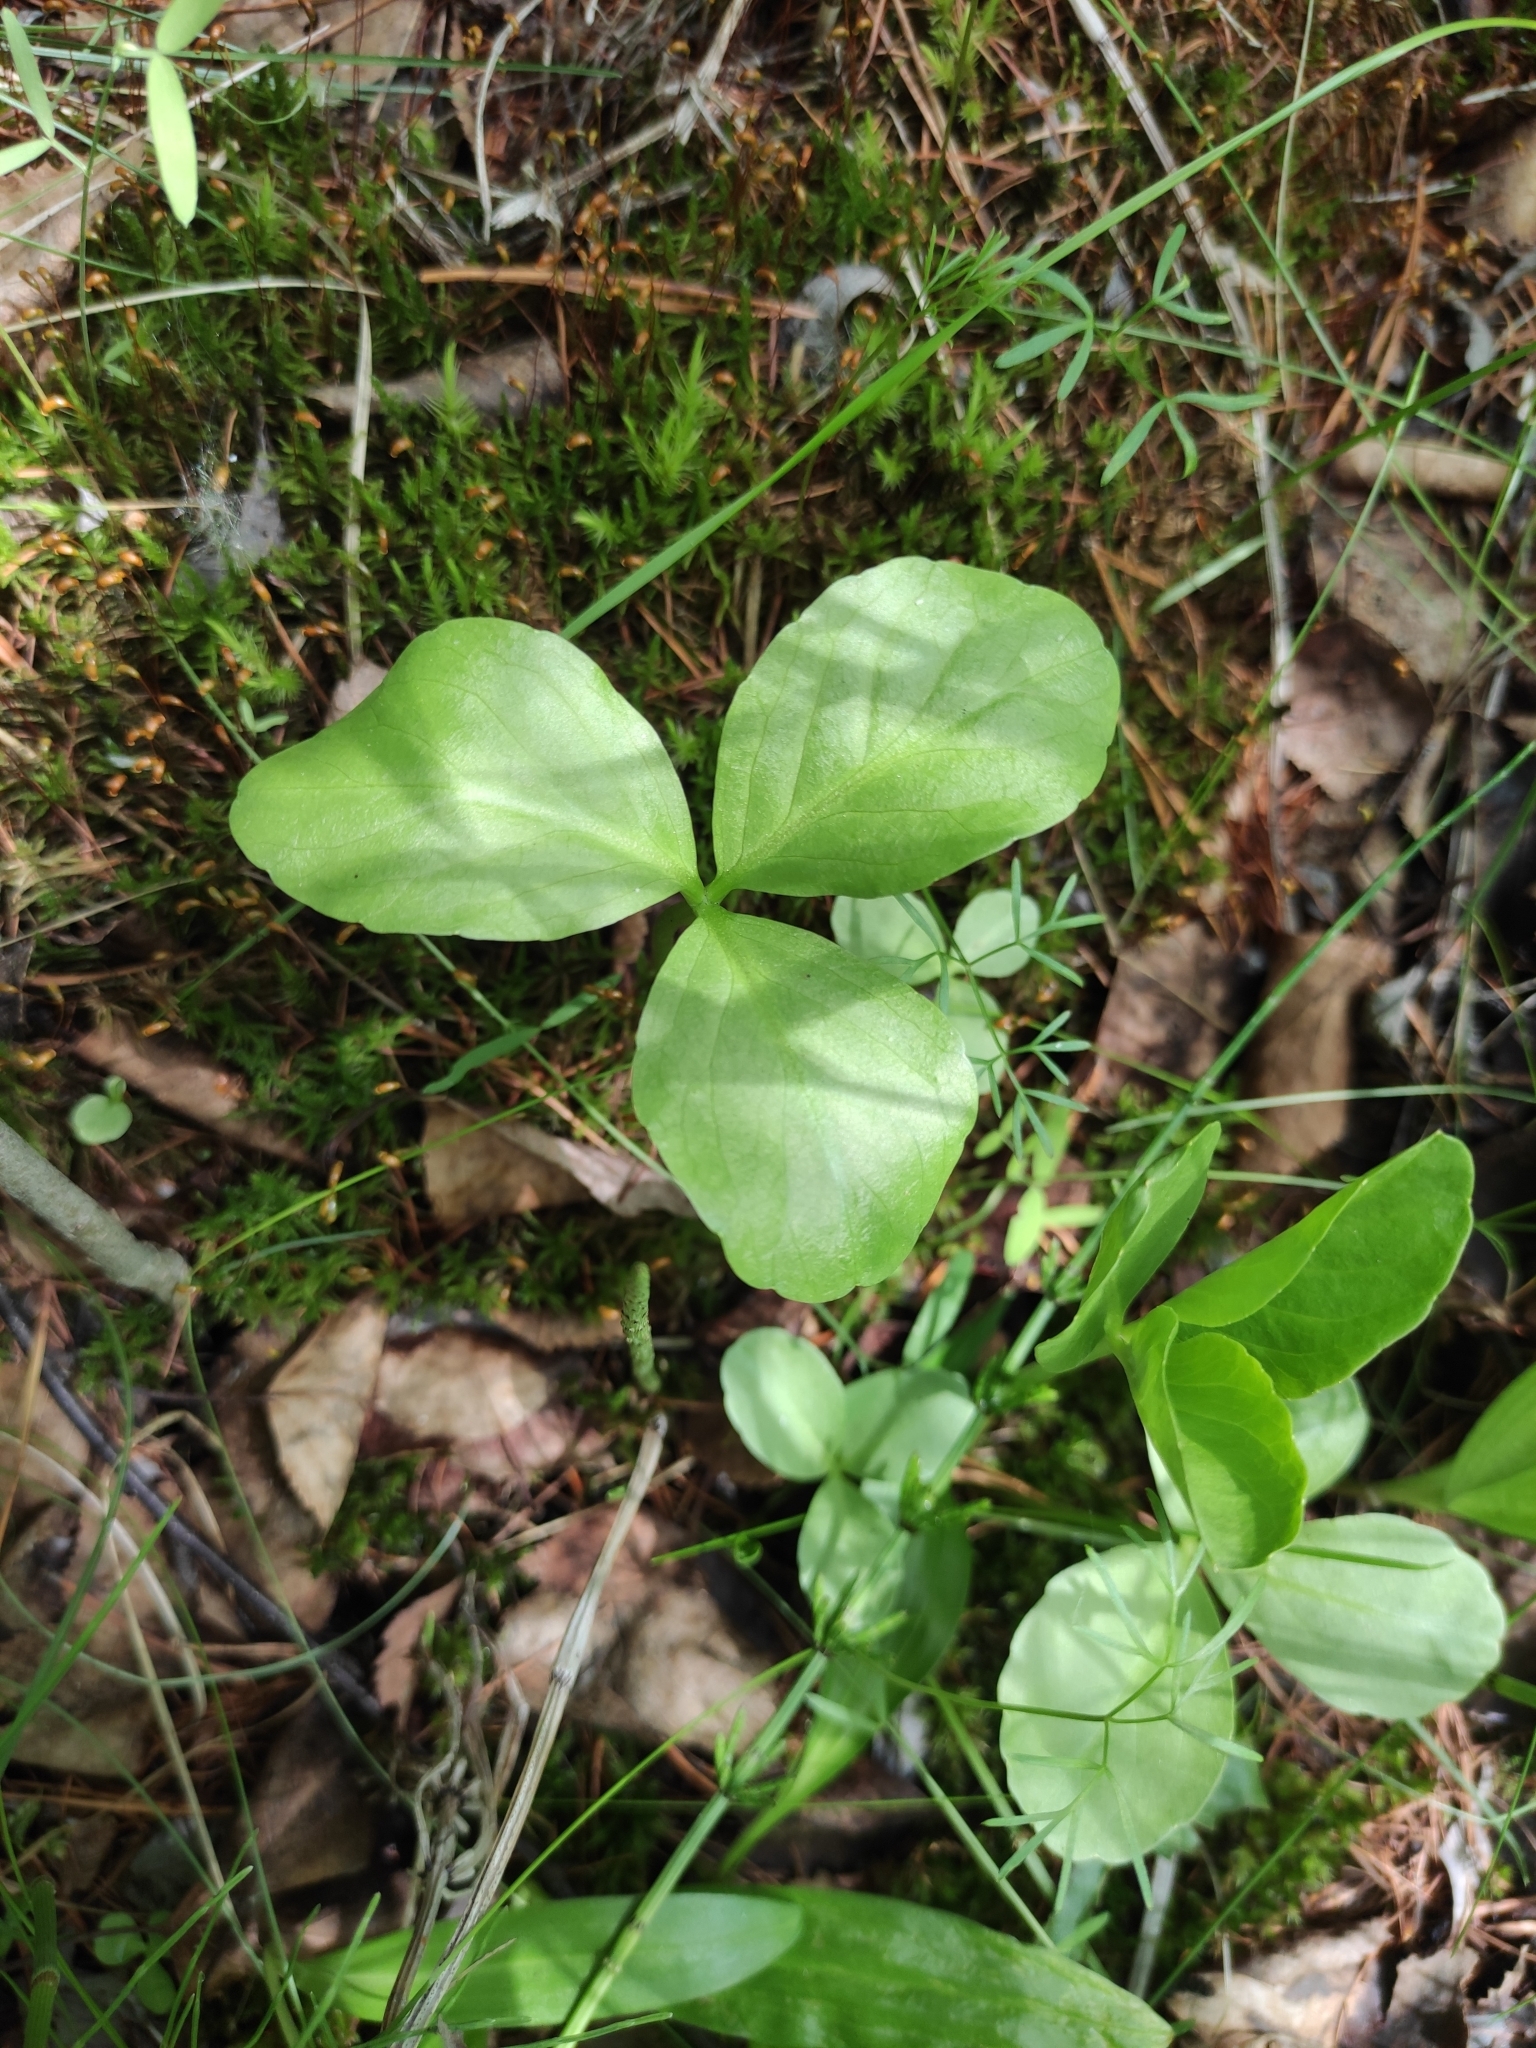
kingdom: Plantae
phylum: Tracheophyta
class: Magnoliopsida
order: Asterales
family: Menyanthaceae
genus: Menyanthes
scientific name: Menyanthes trifoliata
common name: Bogbean
